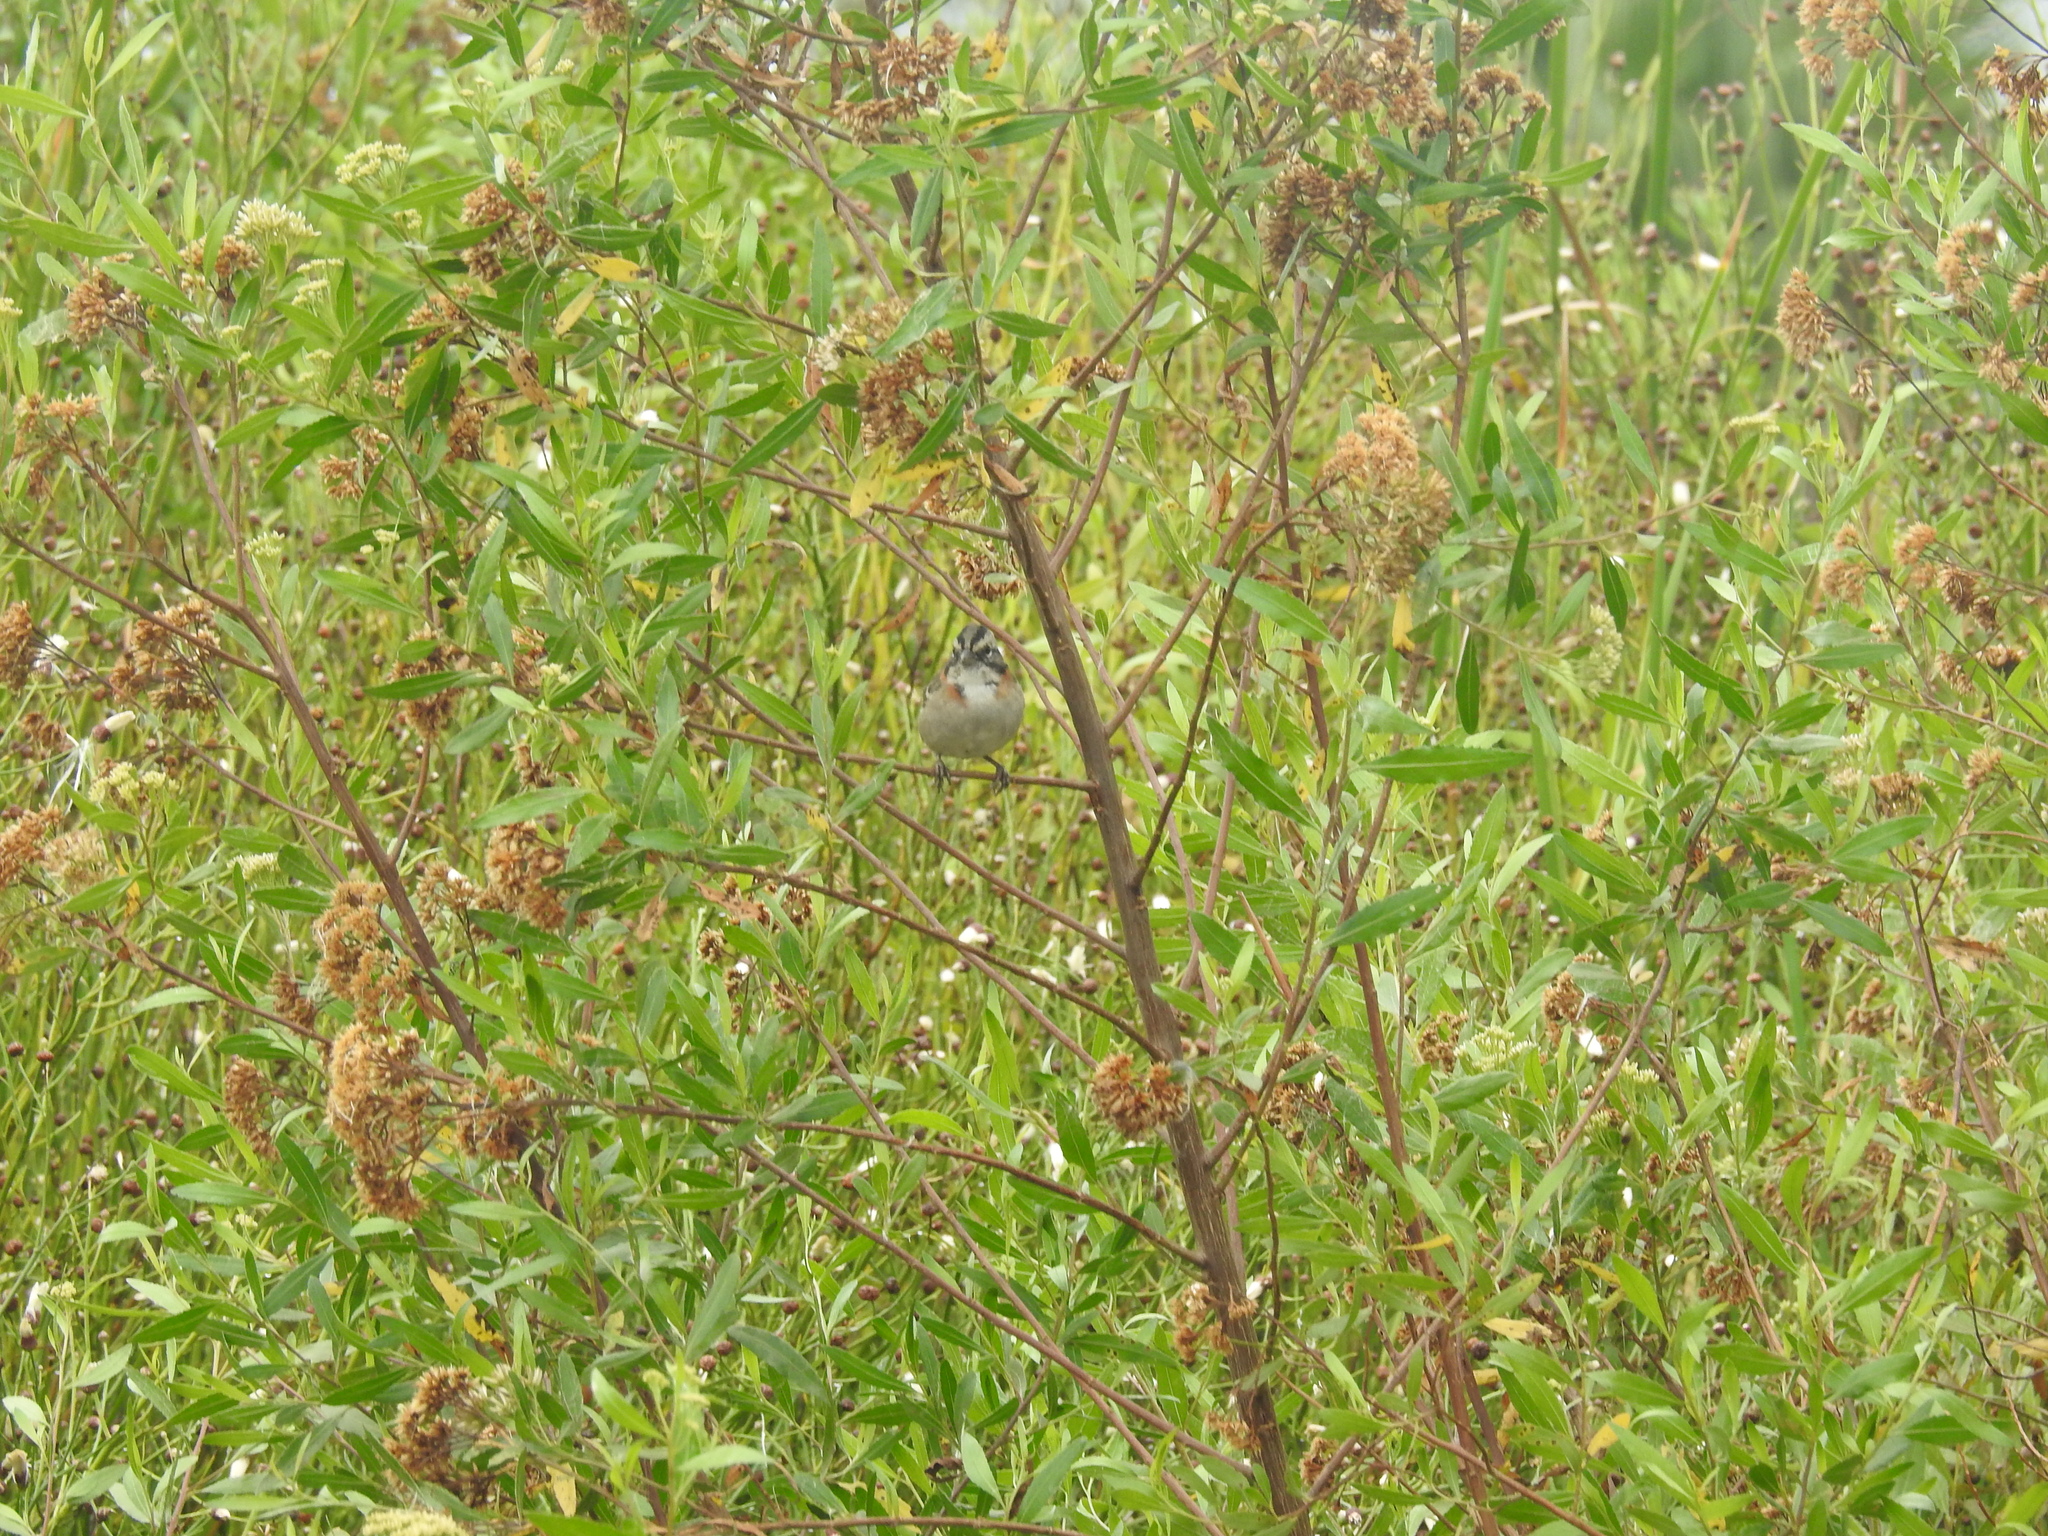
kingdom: Animalia
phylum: Chordata
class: Aves
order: Passeriformes
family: Passerellidae
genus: Zonotrichia
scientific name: Zonotrichia capensis
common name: Rufous-collared sparrow
